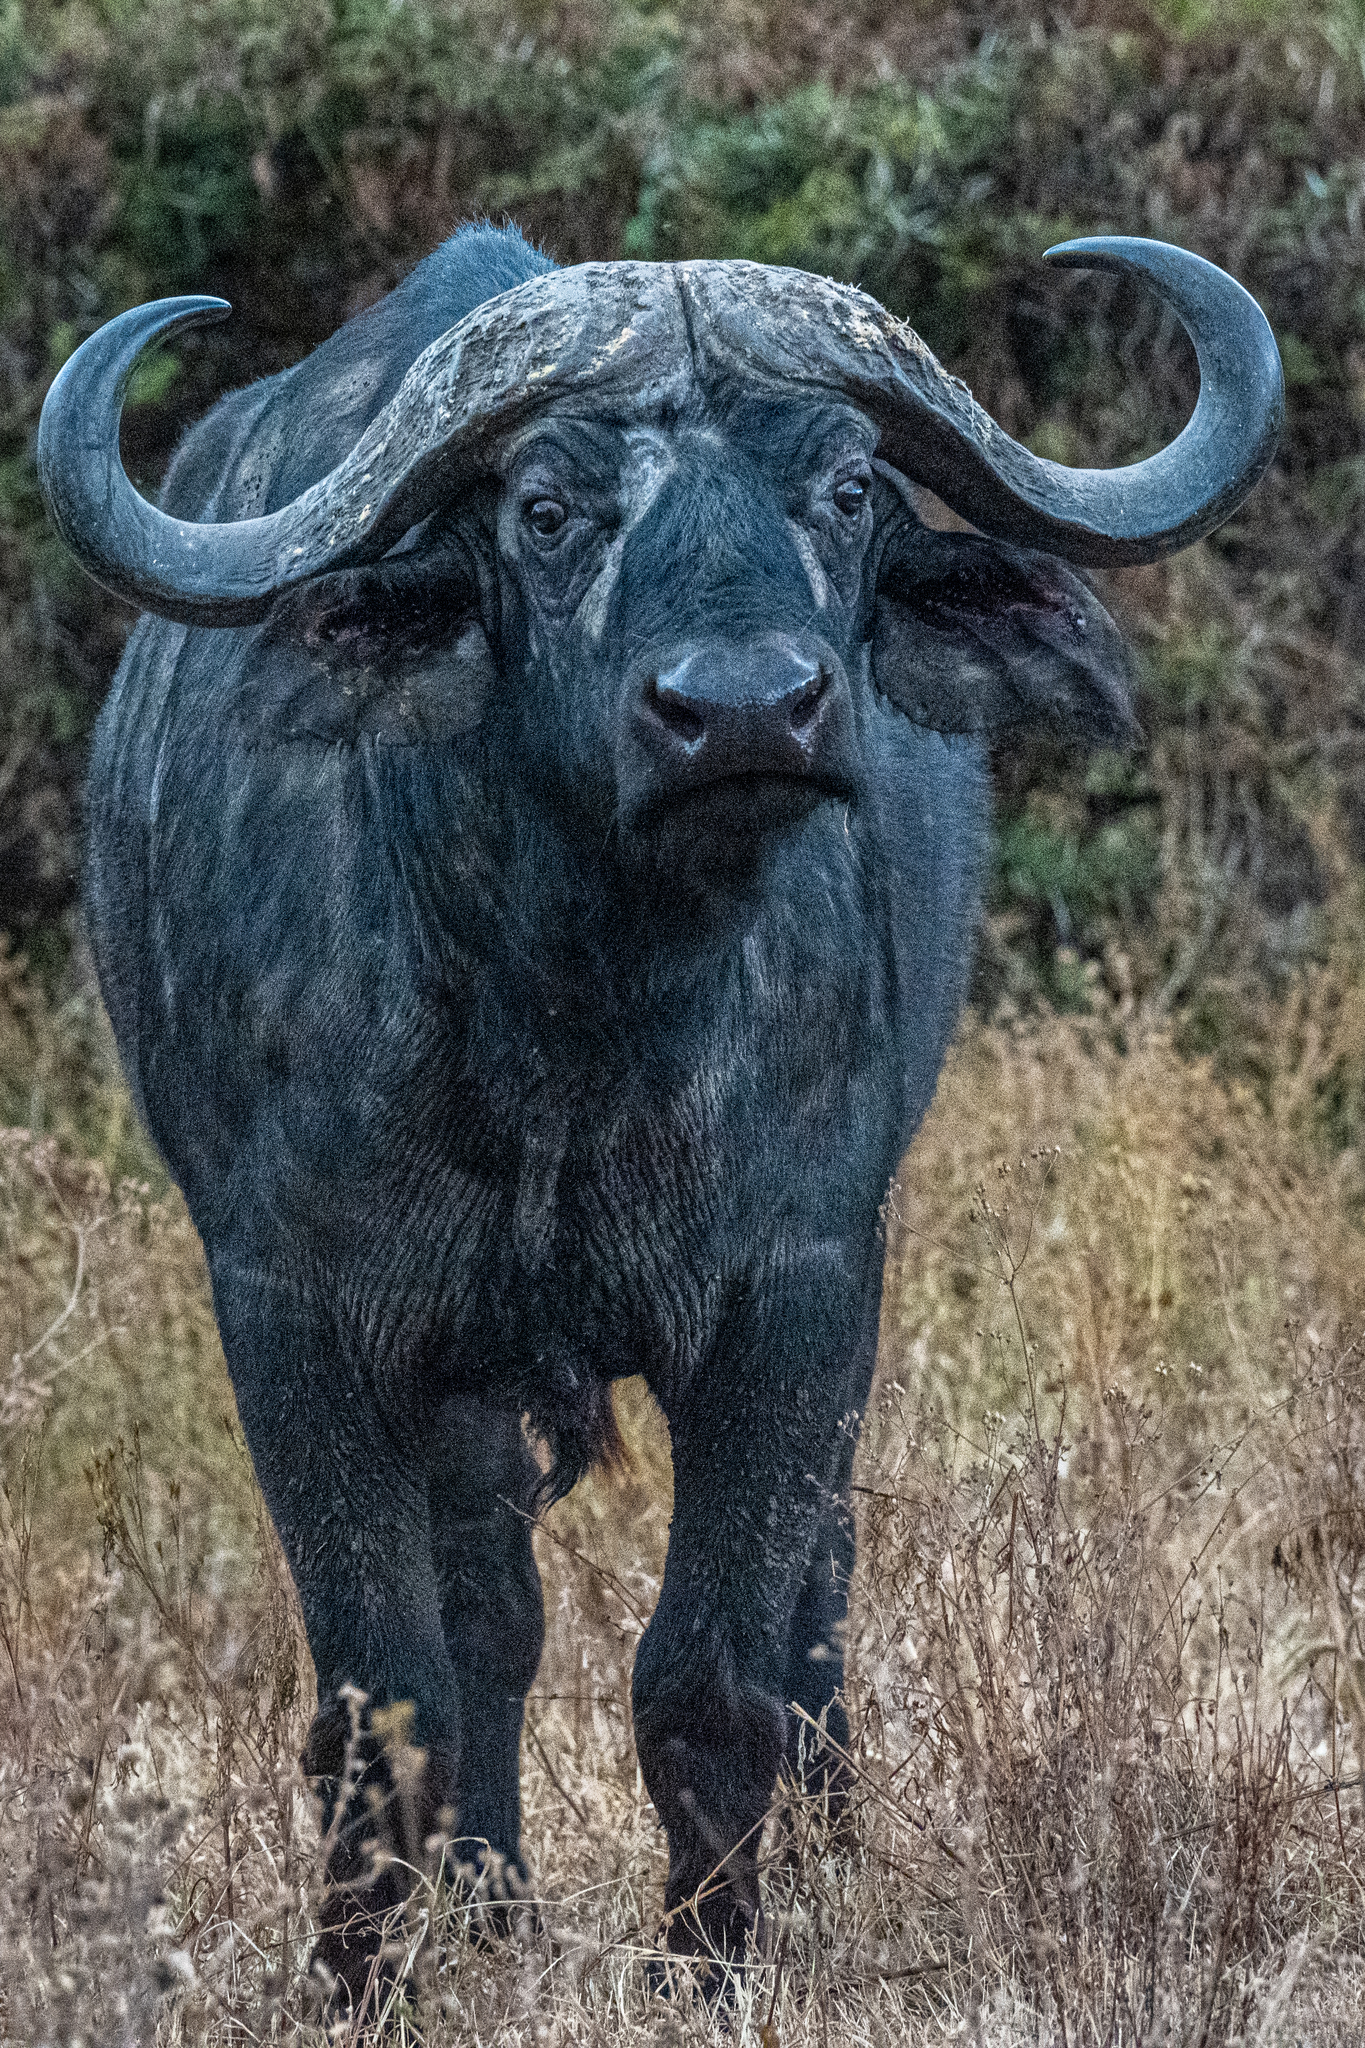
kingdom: Animalia
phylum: Chordata
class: Mammalia
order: Artiodactyla
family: Bovidae
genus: Syncerus
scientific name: Syncerus caffer
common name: African buffalo
